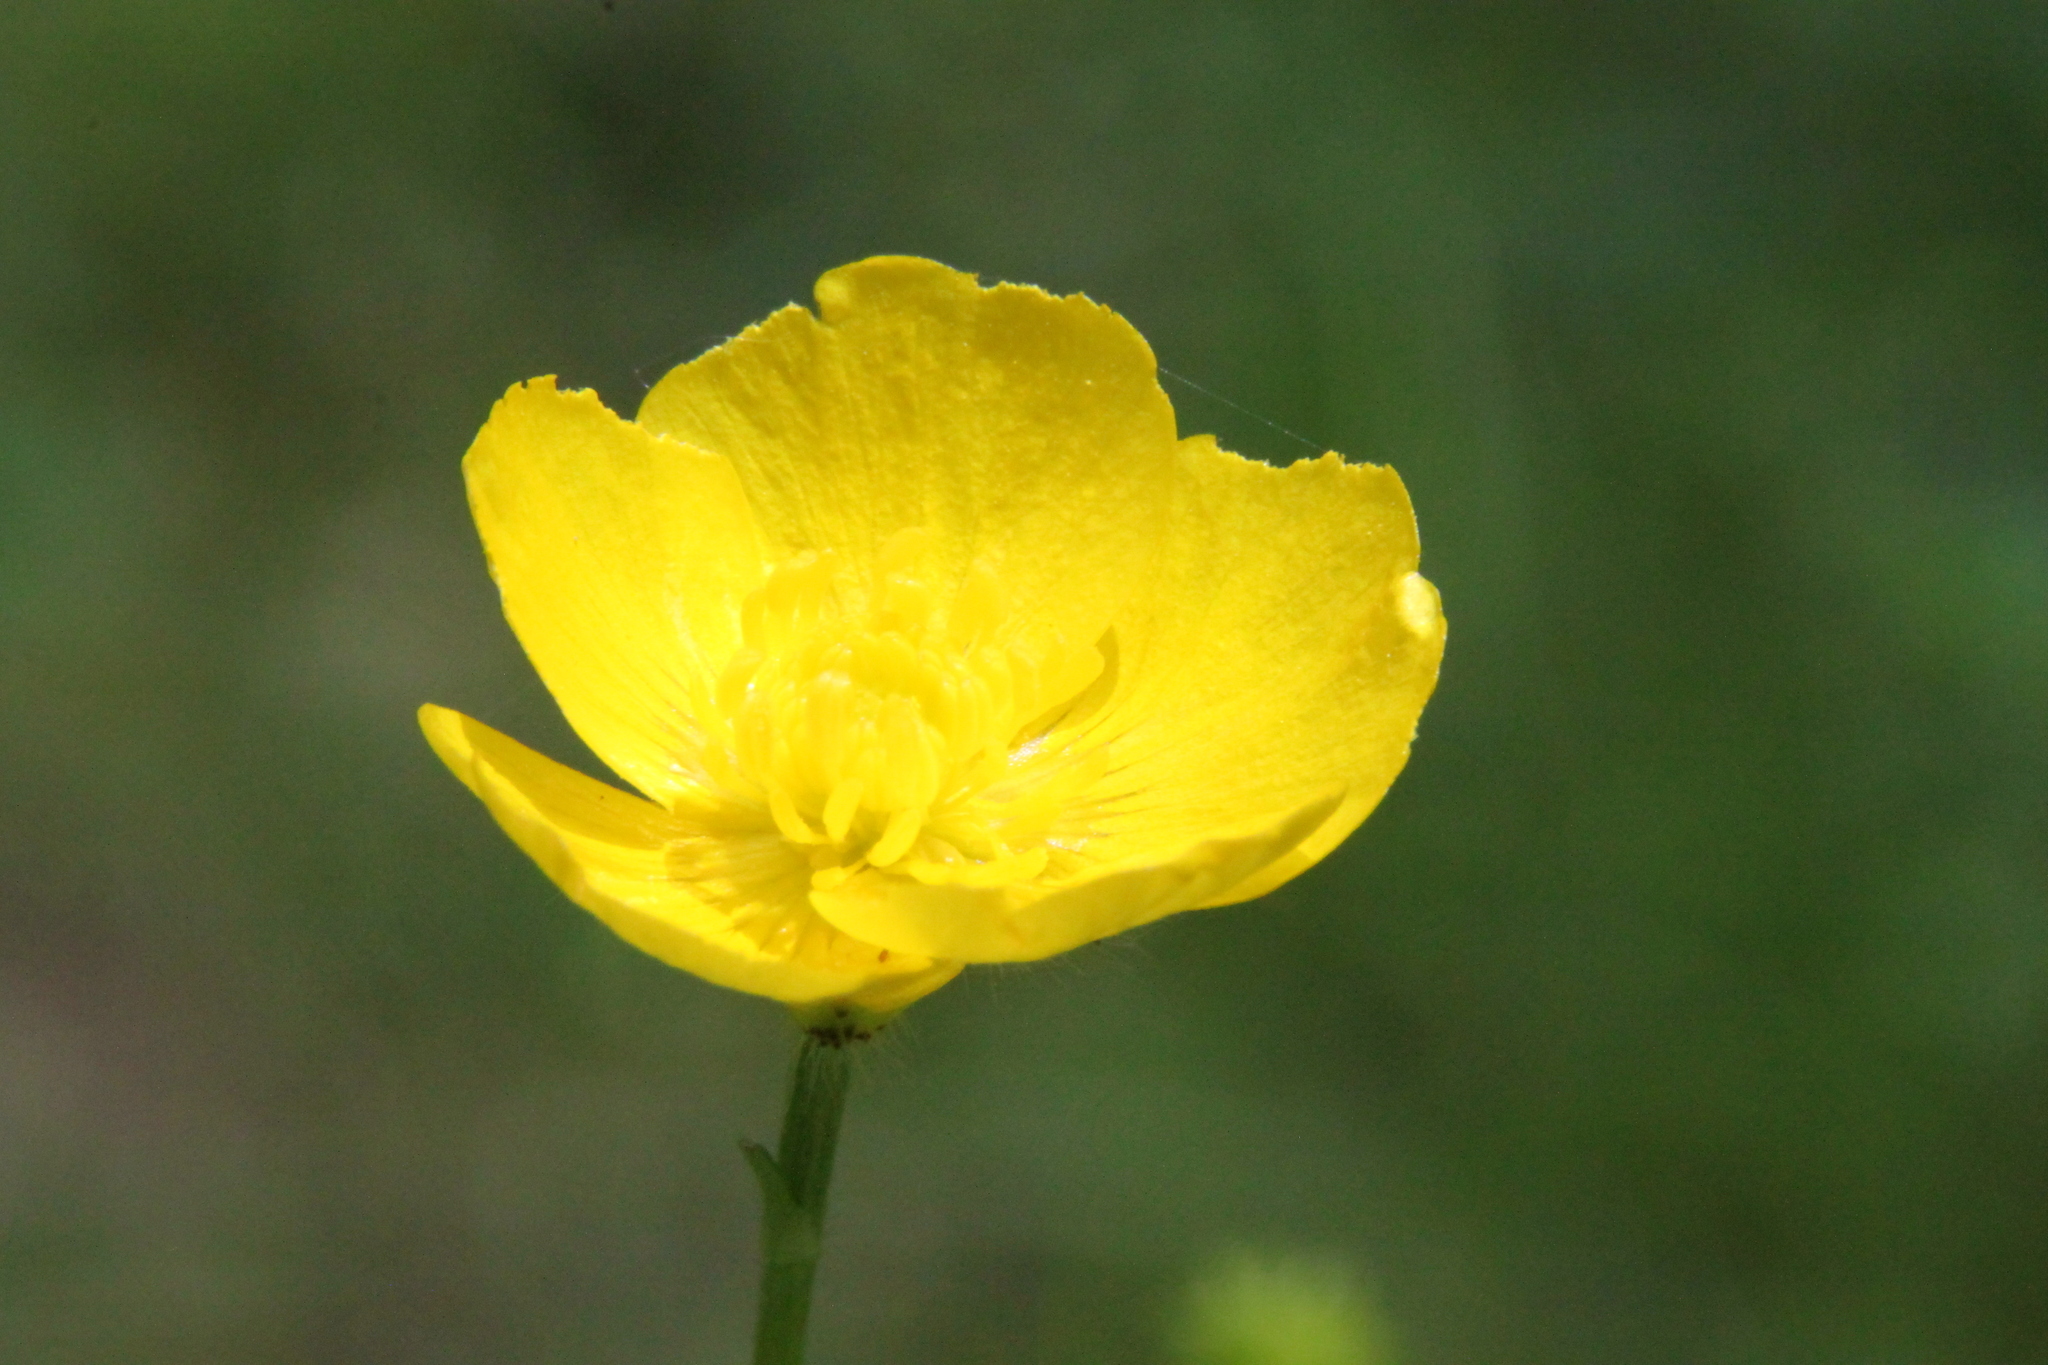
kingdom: Plantae
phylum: Tracheophyta
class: Magnoliopsida
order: Ranunculales
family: Ranunculaceae
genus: Ranunculus
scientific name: Ranunculus polyanthemos
